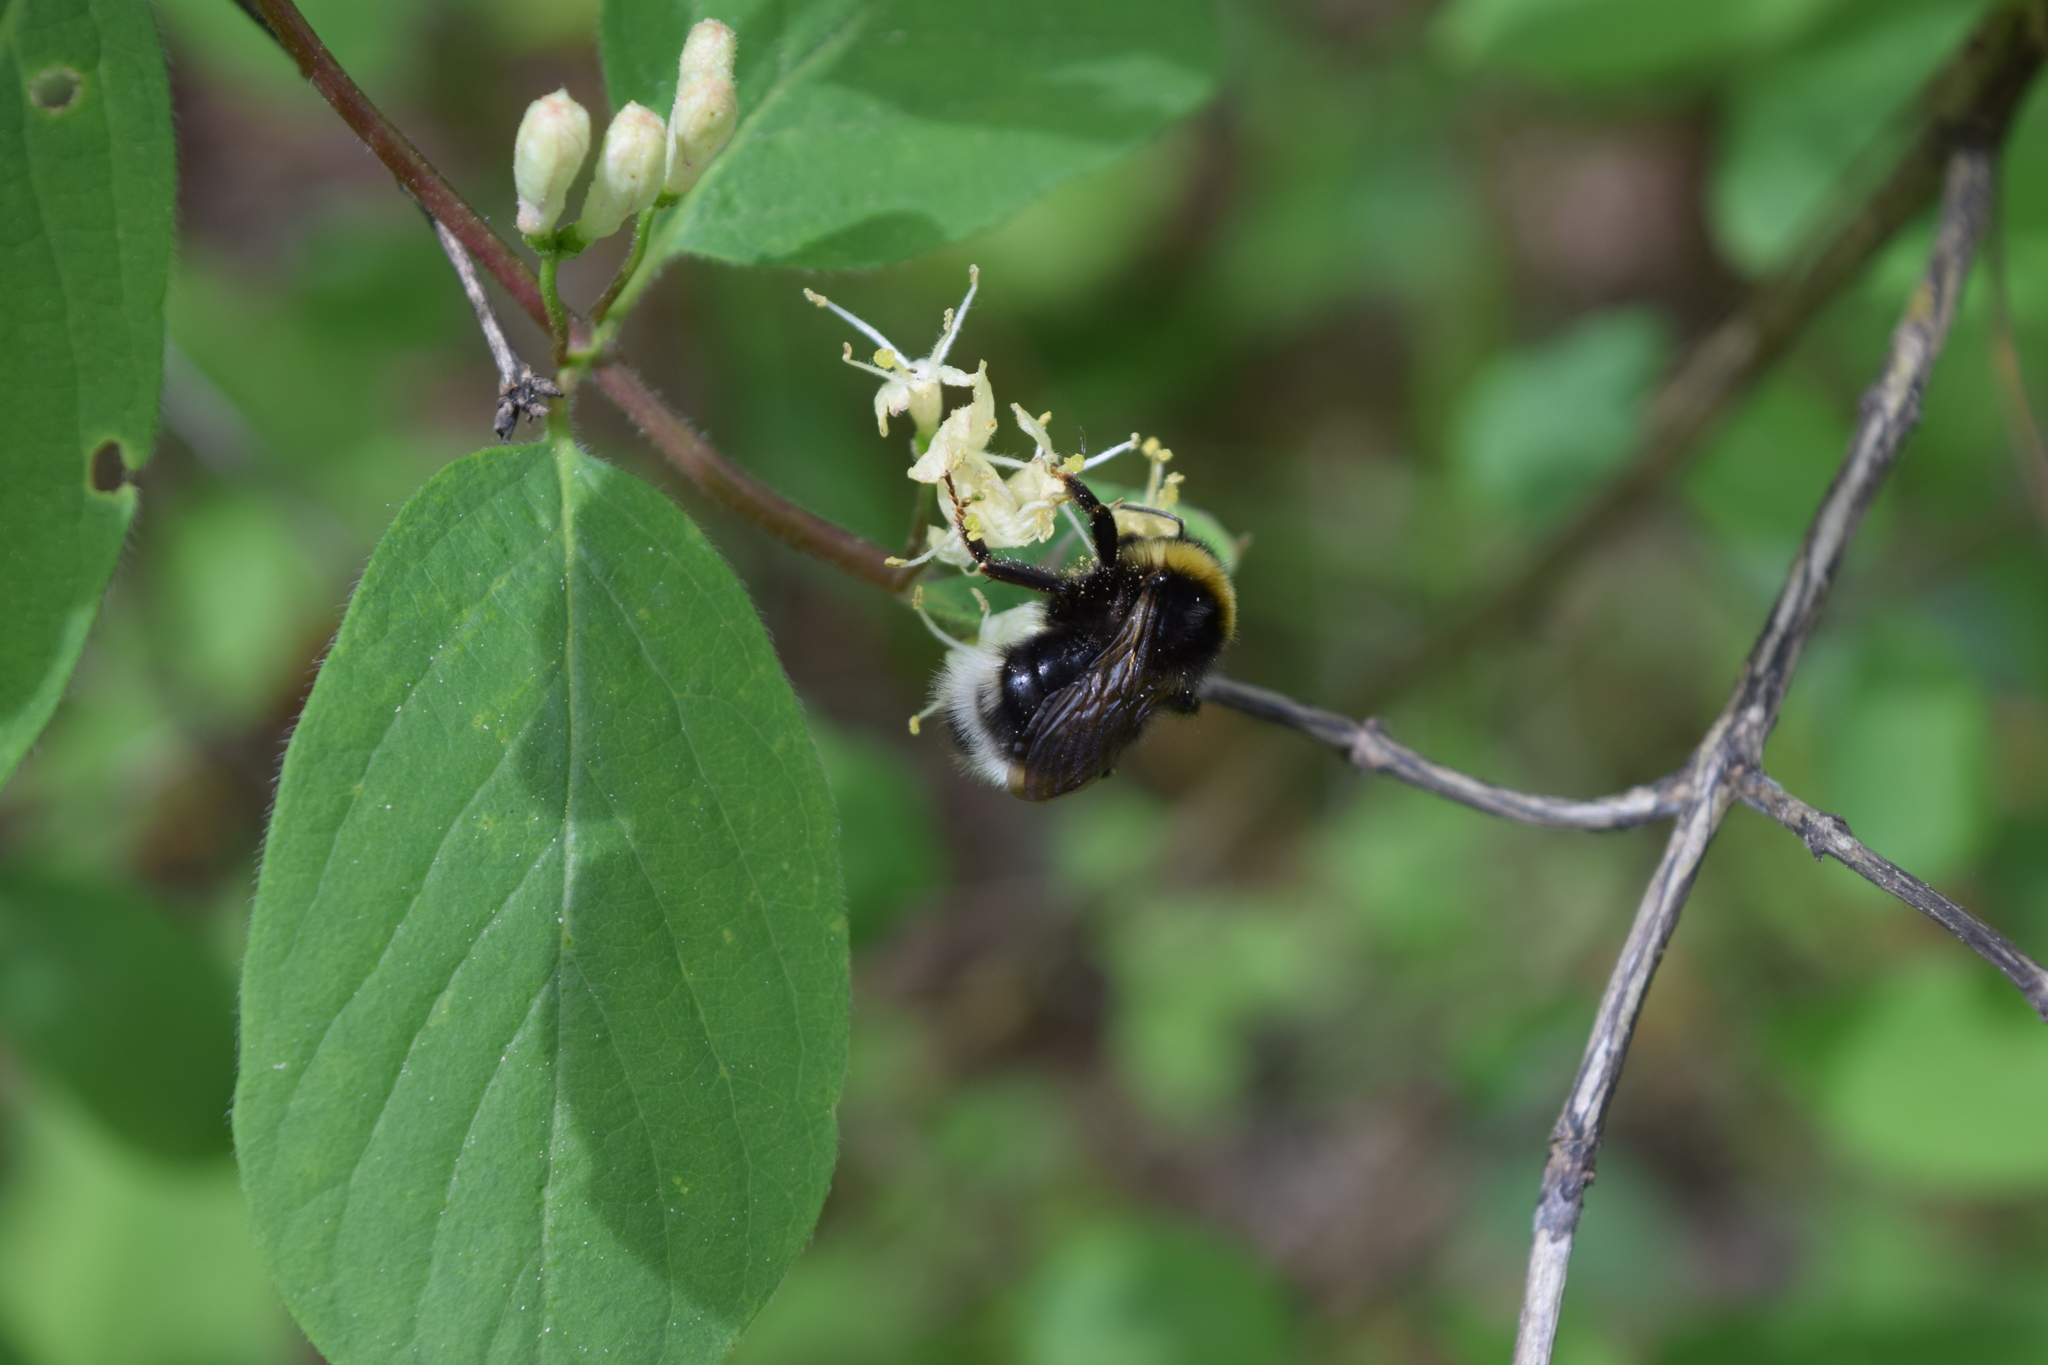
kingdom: Animalia
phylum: Arthropoda
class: Insecta
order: Hymenoptera
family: Apidae
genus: Bombus
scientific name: Bombus
